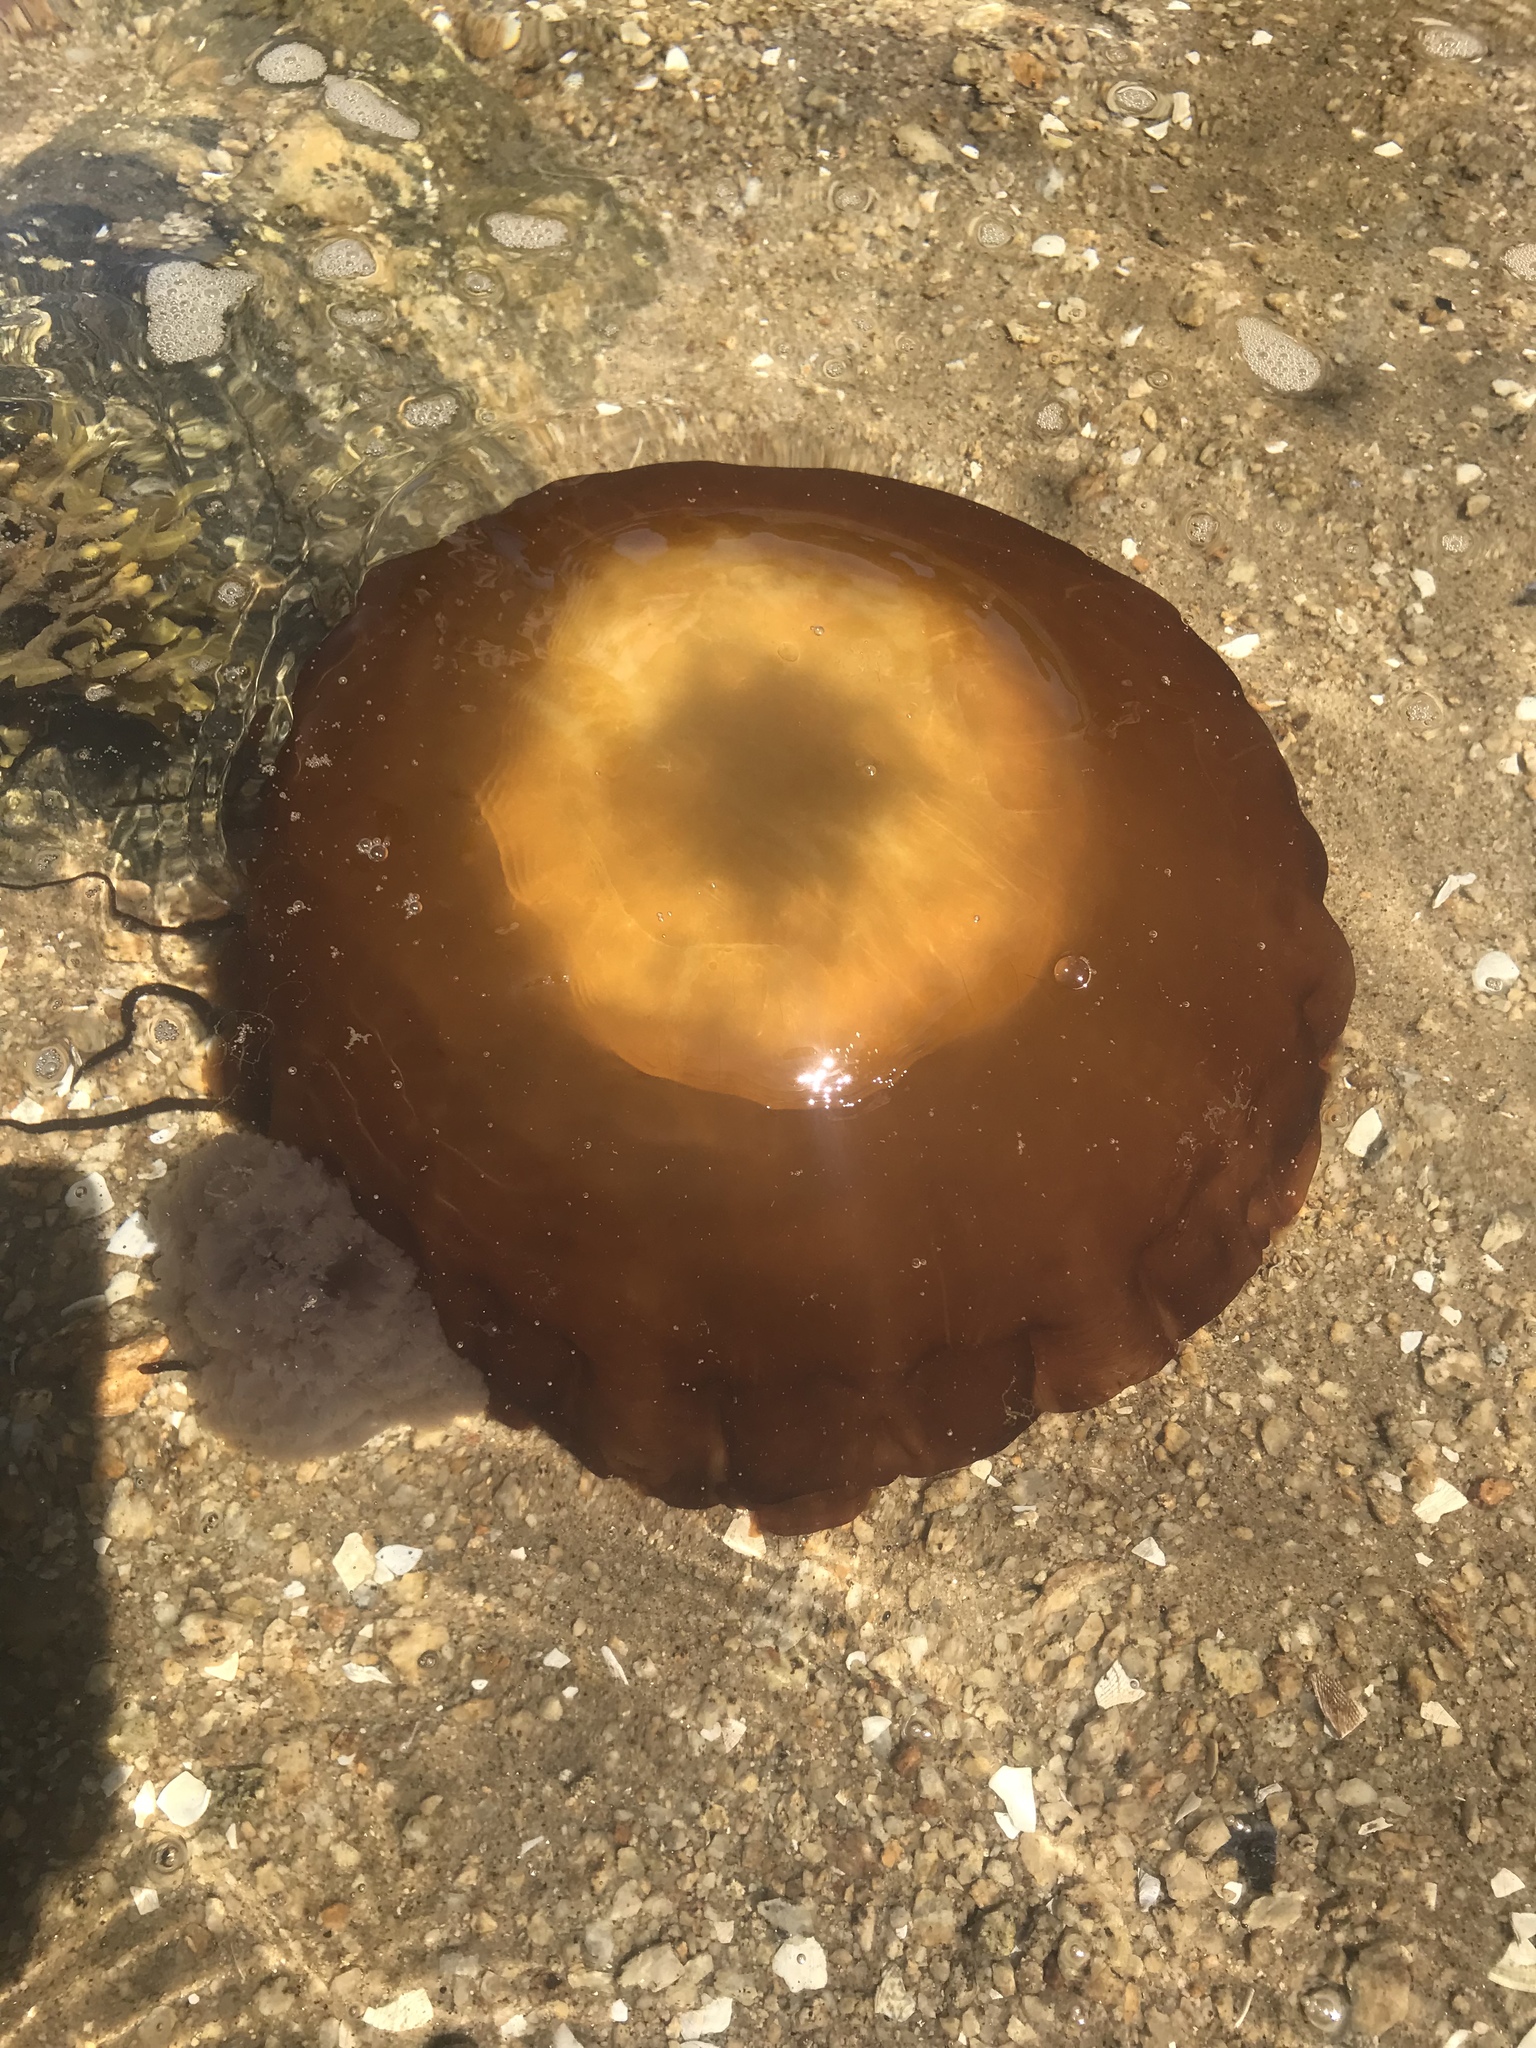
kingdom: Animalia
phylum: Cnidaria
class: Scyphozoa
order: Semaeostomeae
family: Pelagiidae
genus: Chrysaora
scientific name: Chrysaora fuscescens
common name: Sea nettle
